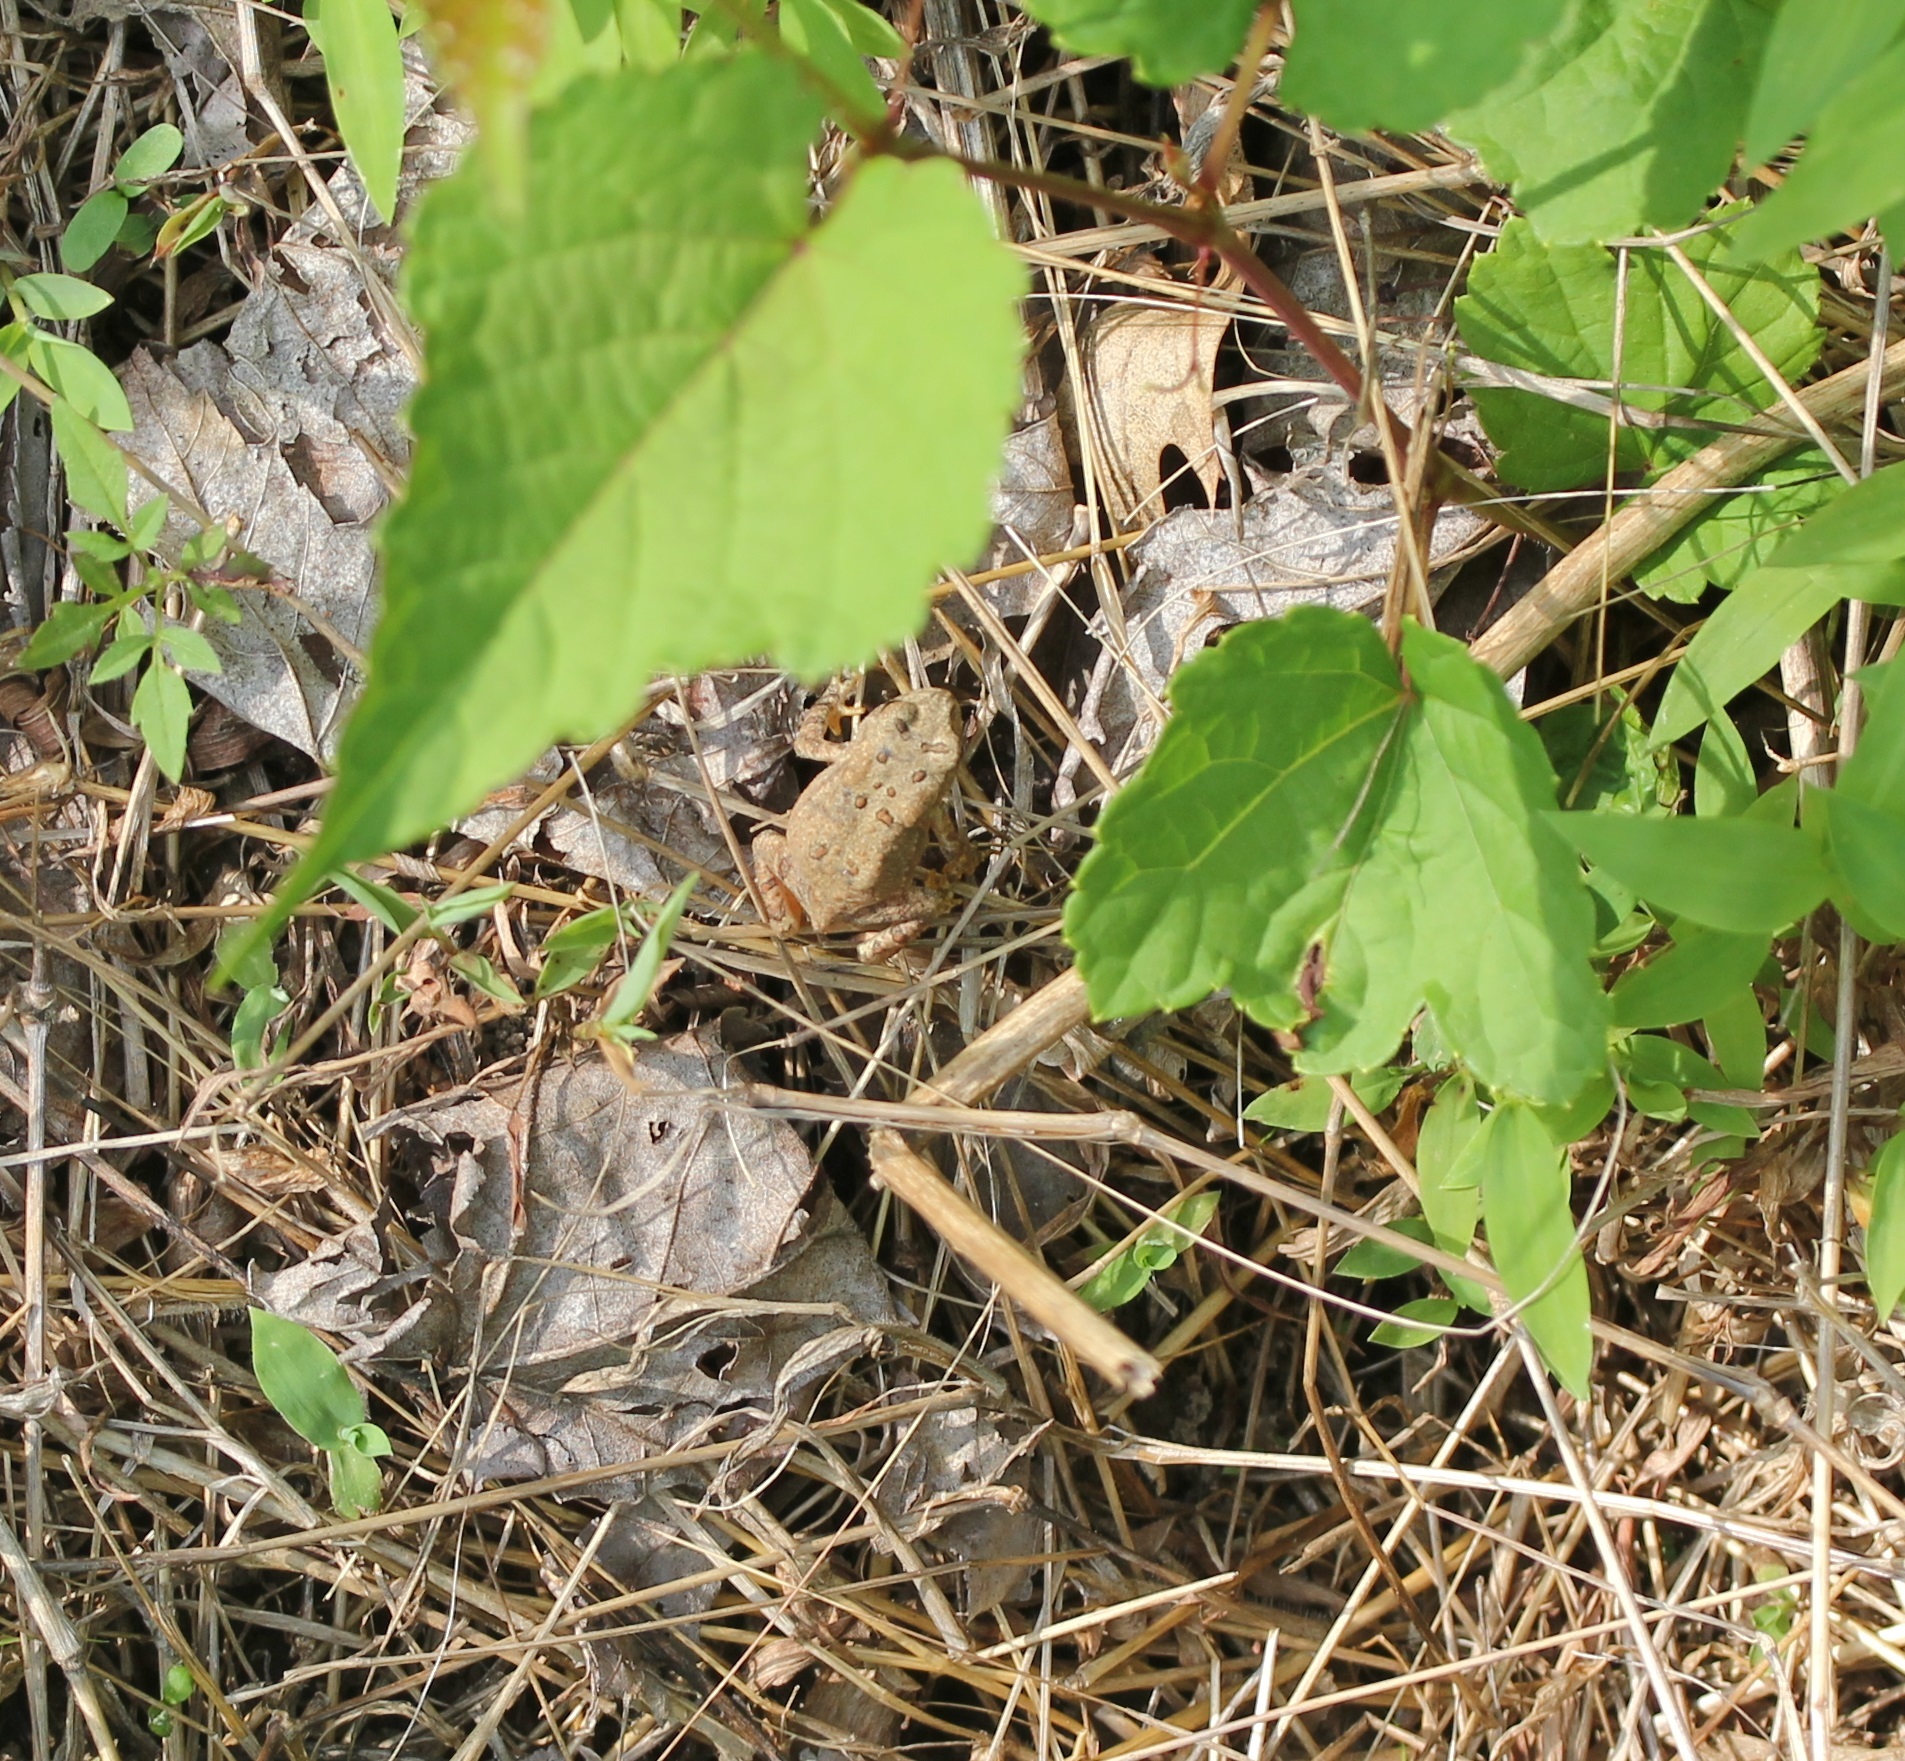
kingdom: Animalia
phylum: Chordata
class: Amphibia
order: Anura
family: Bufonidae
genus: Anaxyrus
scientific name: Anaxyrus americanus
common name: American toad
